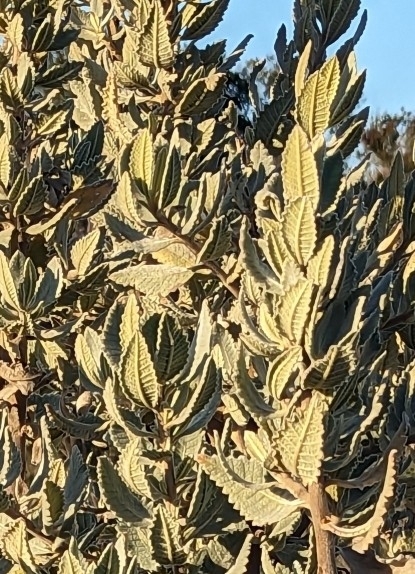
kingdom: Plantae
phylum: Tracheophyta
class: Magnoliopsida
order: Boraginales
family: Namaceae
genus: Eriodictyon
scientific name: Eriodictyon crassifolium
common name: Thick-leaf yerba-santa
